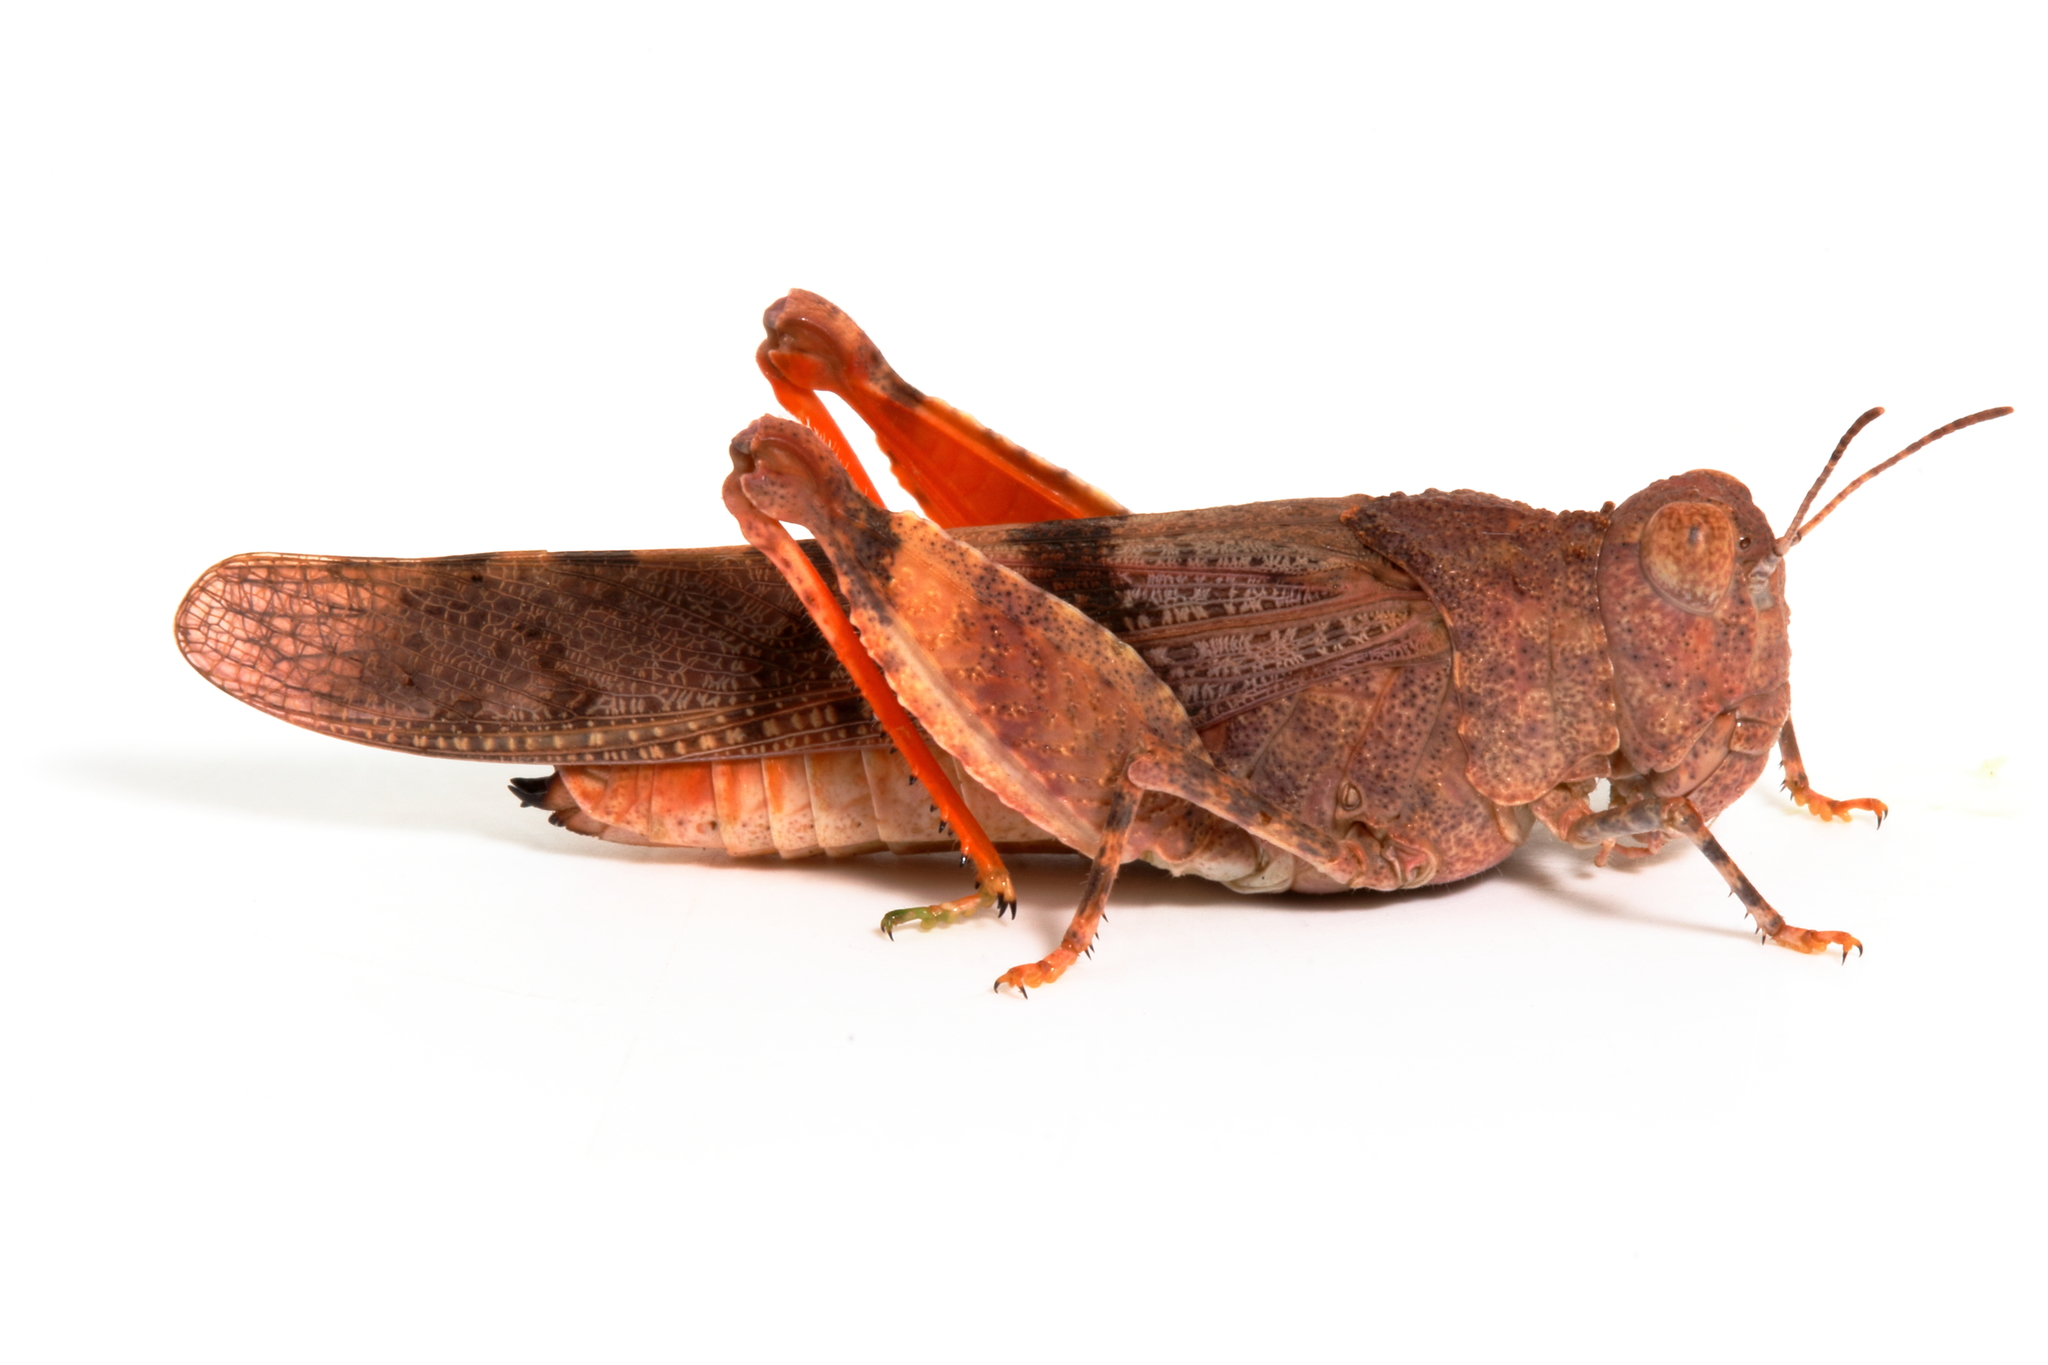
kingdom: Animalia
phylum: Arthropoda
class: Insecta
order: Orthoptera
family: Acrididae
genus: Qualetta
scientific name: Qualetta maculata
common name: Spotted bandwing
